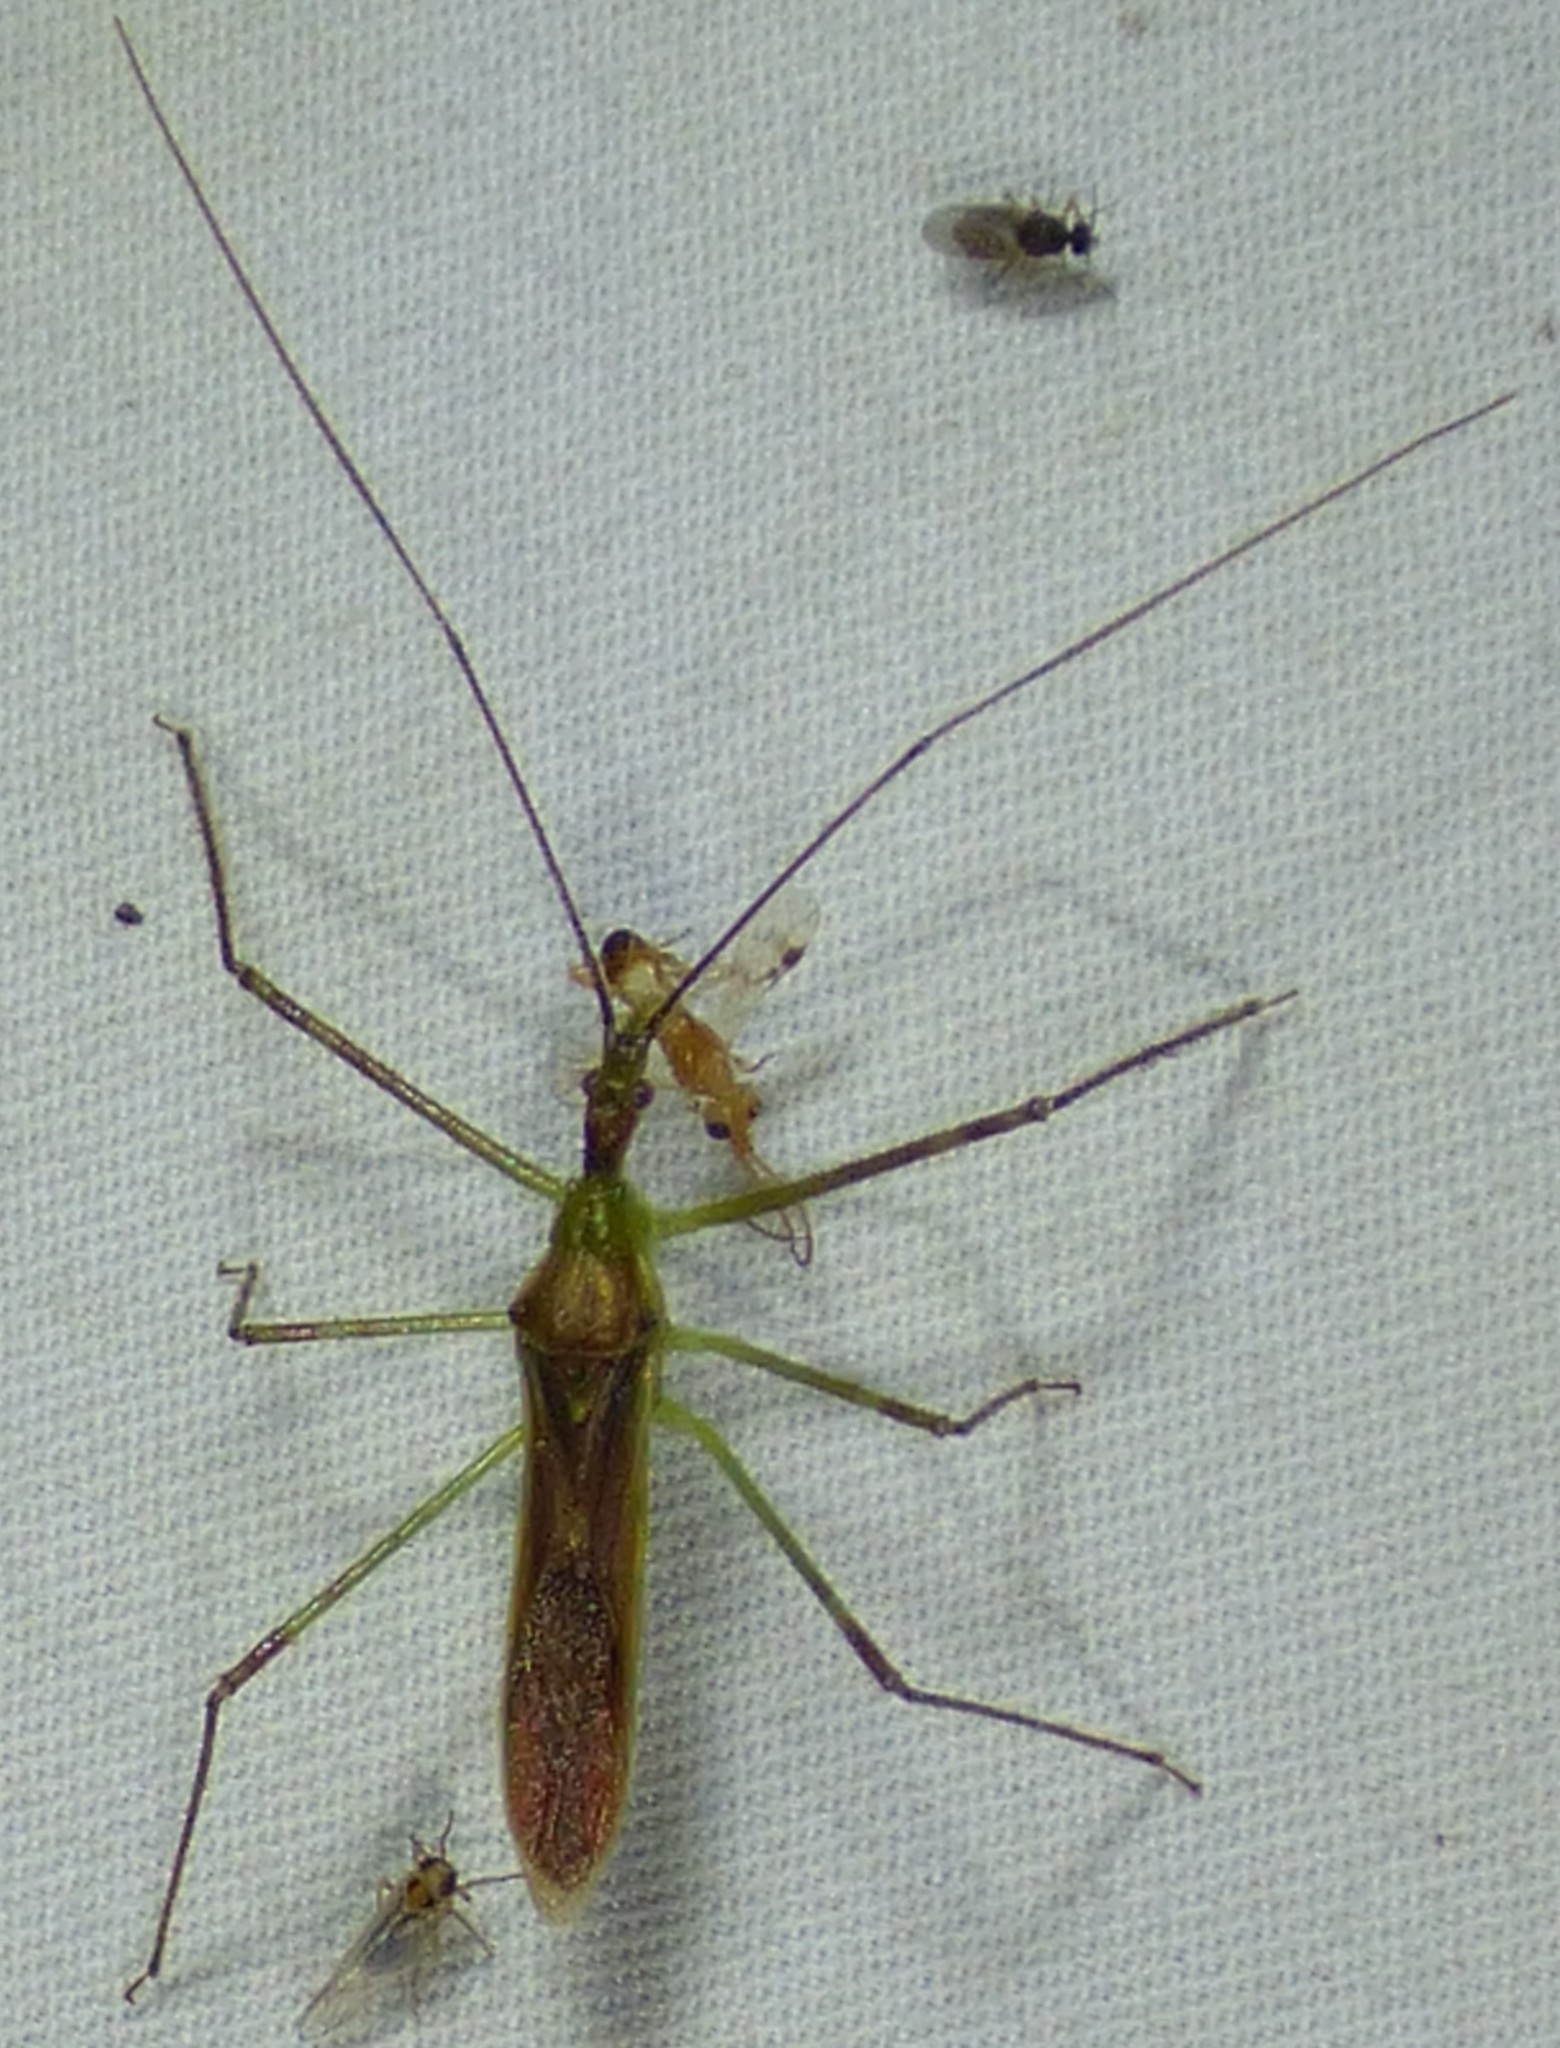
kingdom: Animalia
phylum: Arthropoda
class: Insecta
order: Hemiptera
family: Reduviidae
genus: Zelus
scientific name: Zelus luridus
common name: Pale green assassin bug
